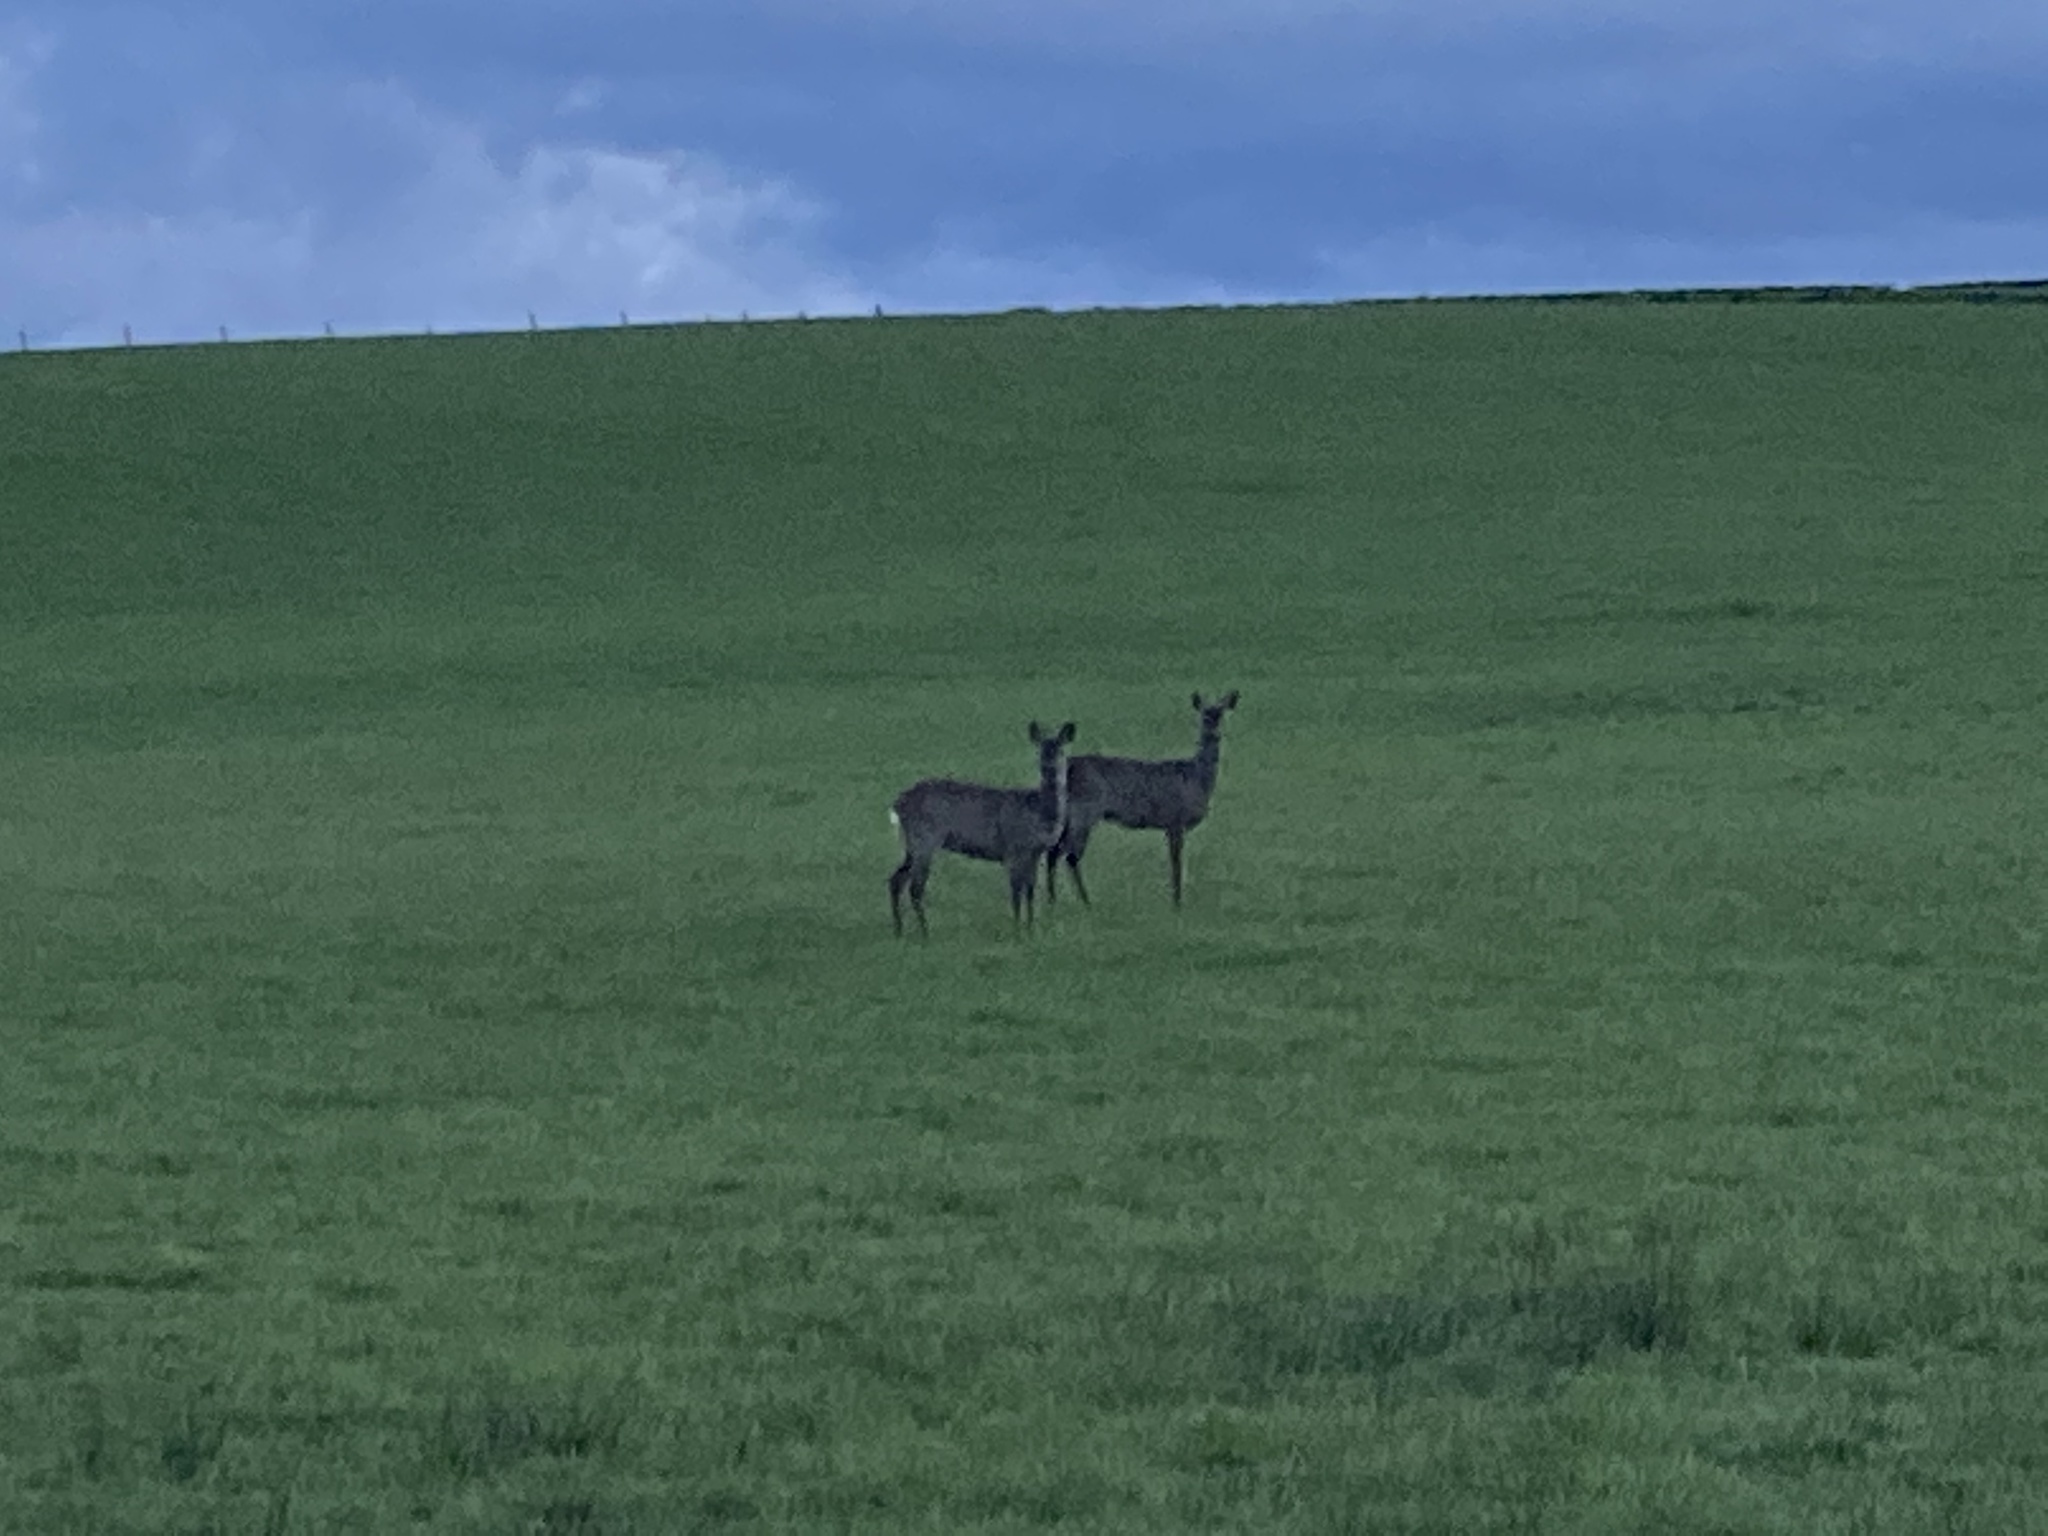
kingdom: Animalia
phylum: Chordata
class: Mammalia
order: Artiodactyla
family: Cervidae
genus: Capreolus
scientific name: Capreolus capreolus
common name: Western roe deer
